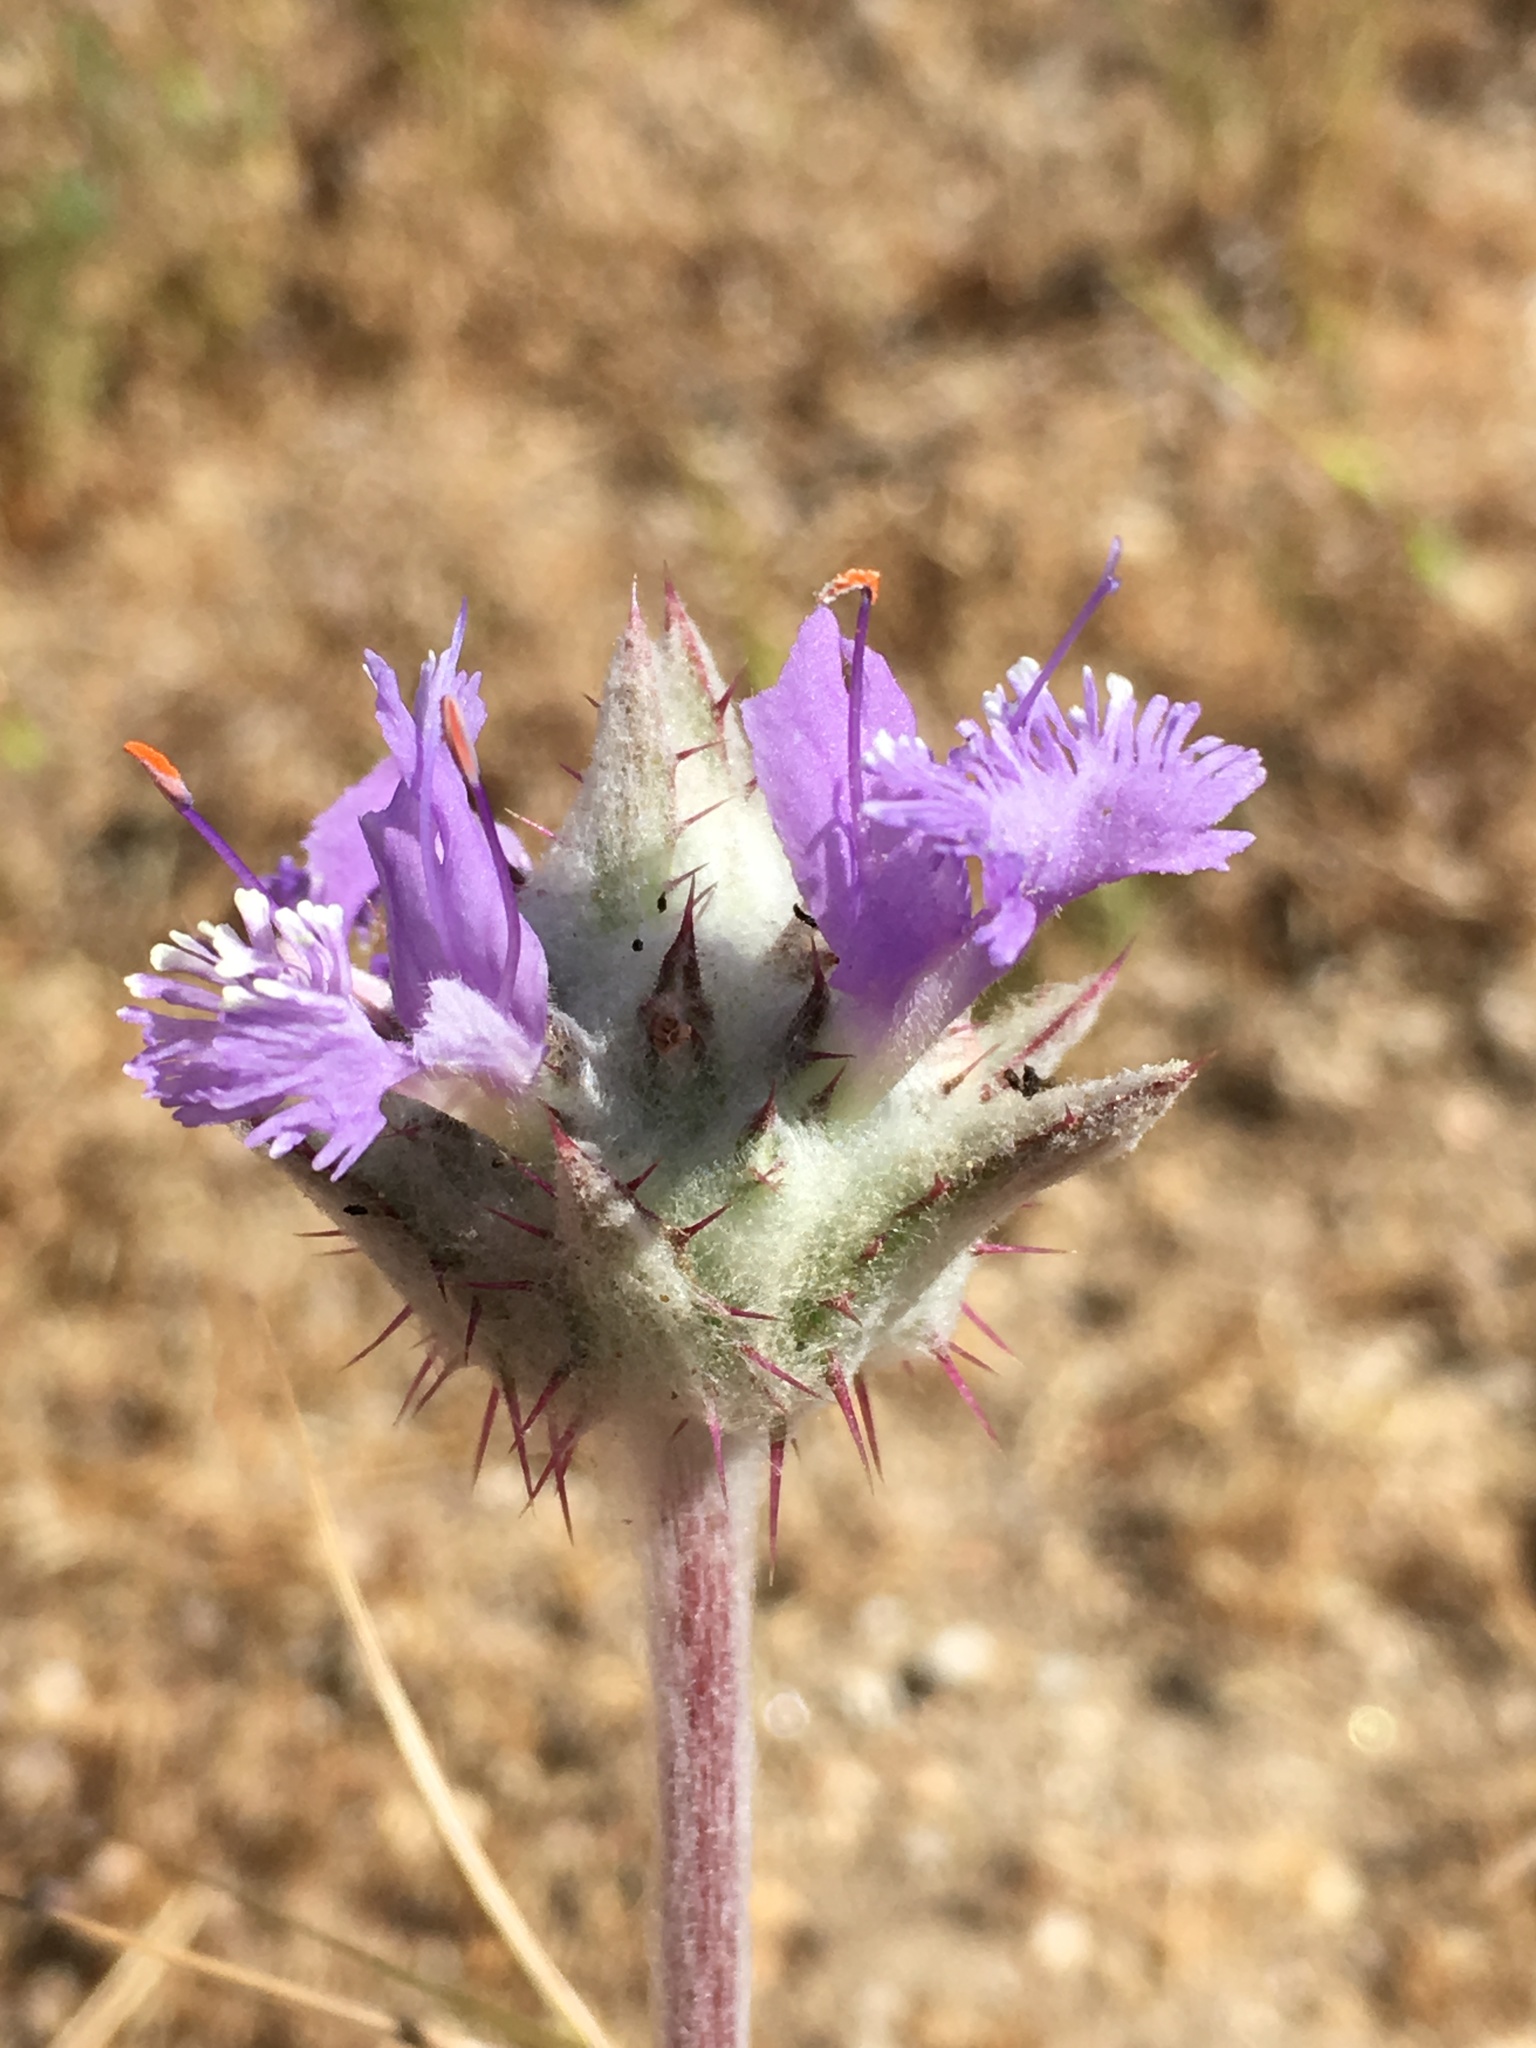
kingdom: Plantae
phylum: Tracheophyta
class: Magnoliopsida
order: Lamiales
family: Lamiaceae
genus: Salvia
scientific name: Salvia carduacea
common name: Thistle sage
